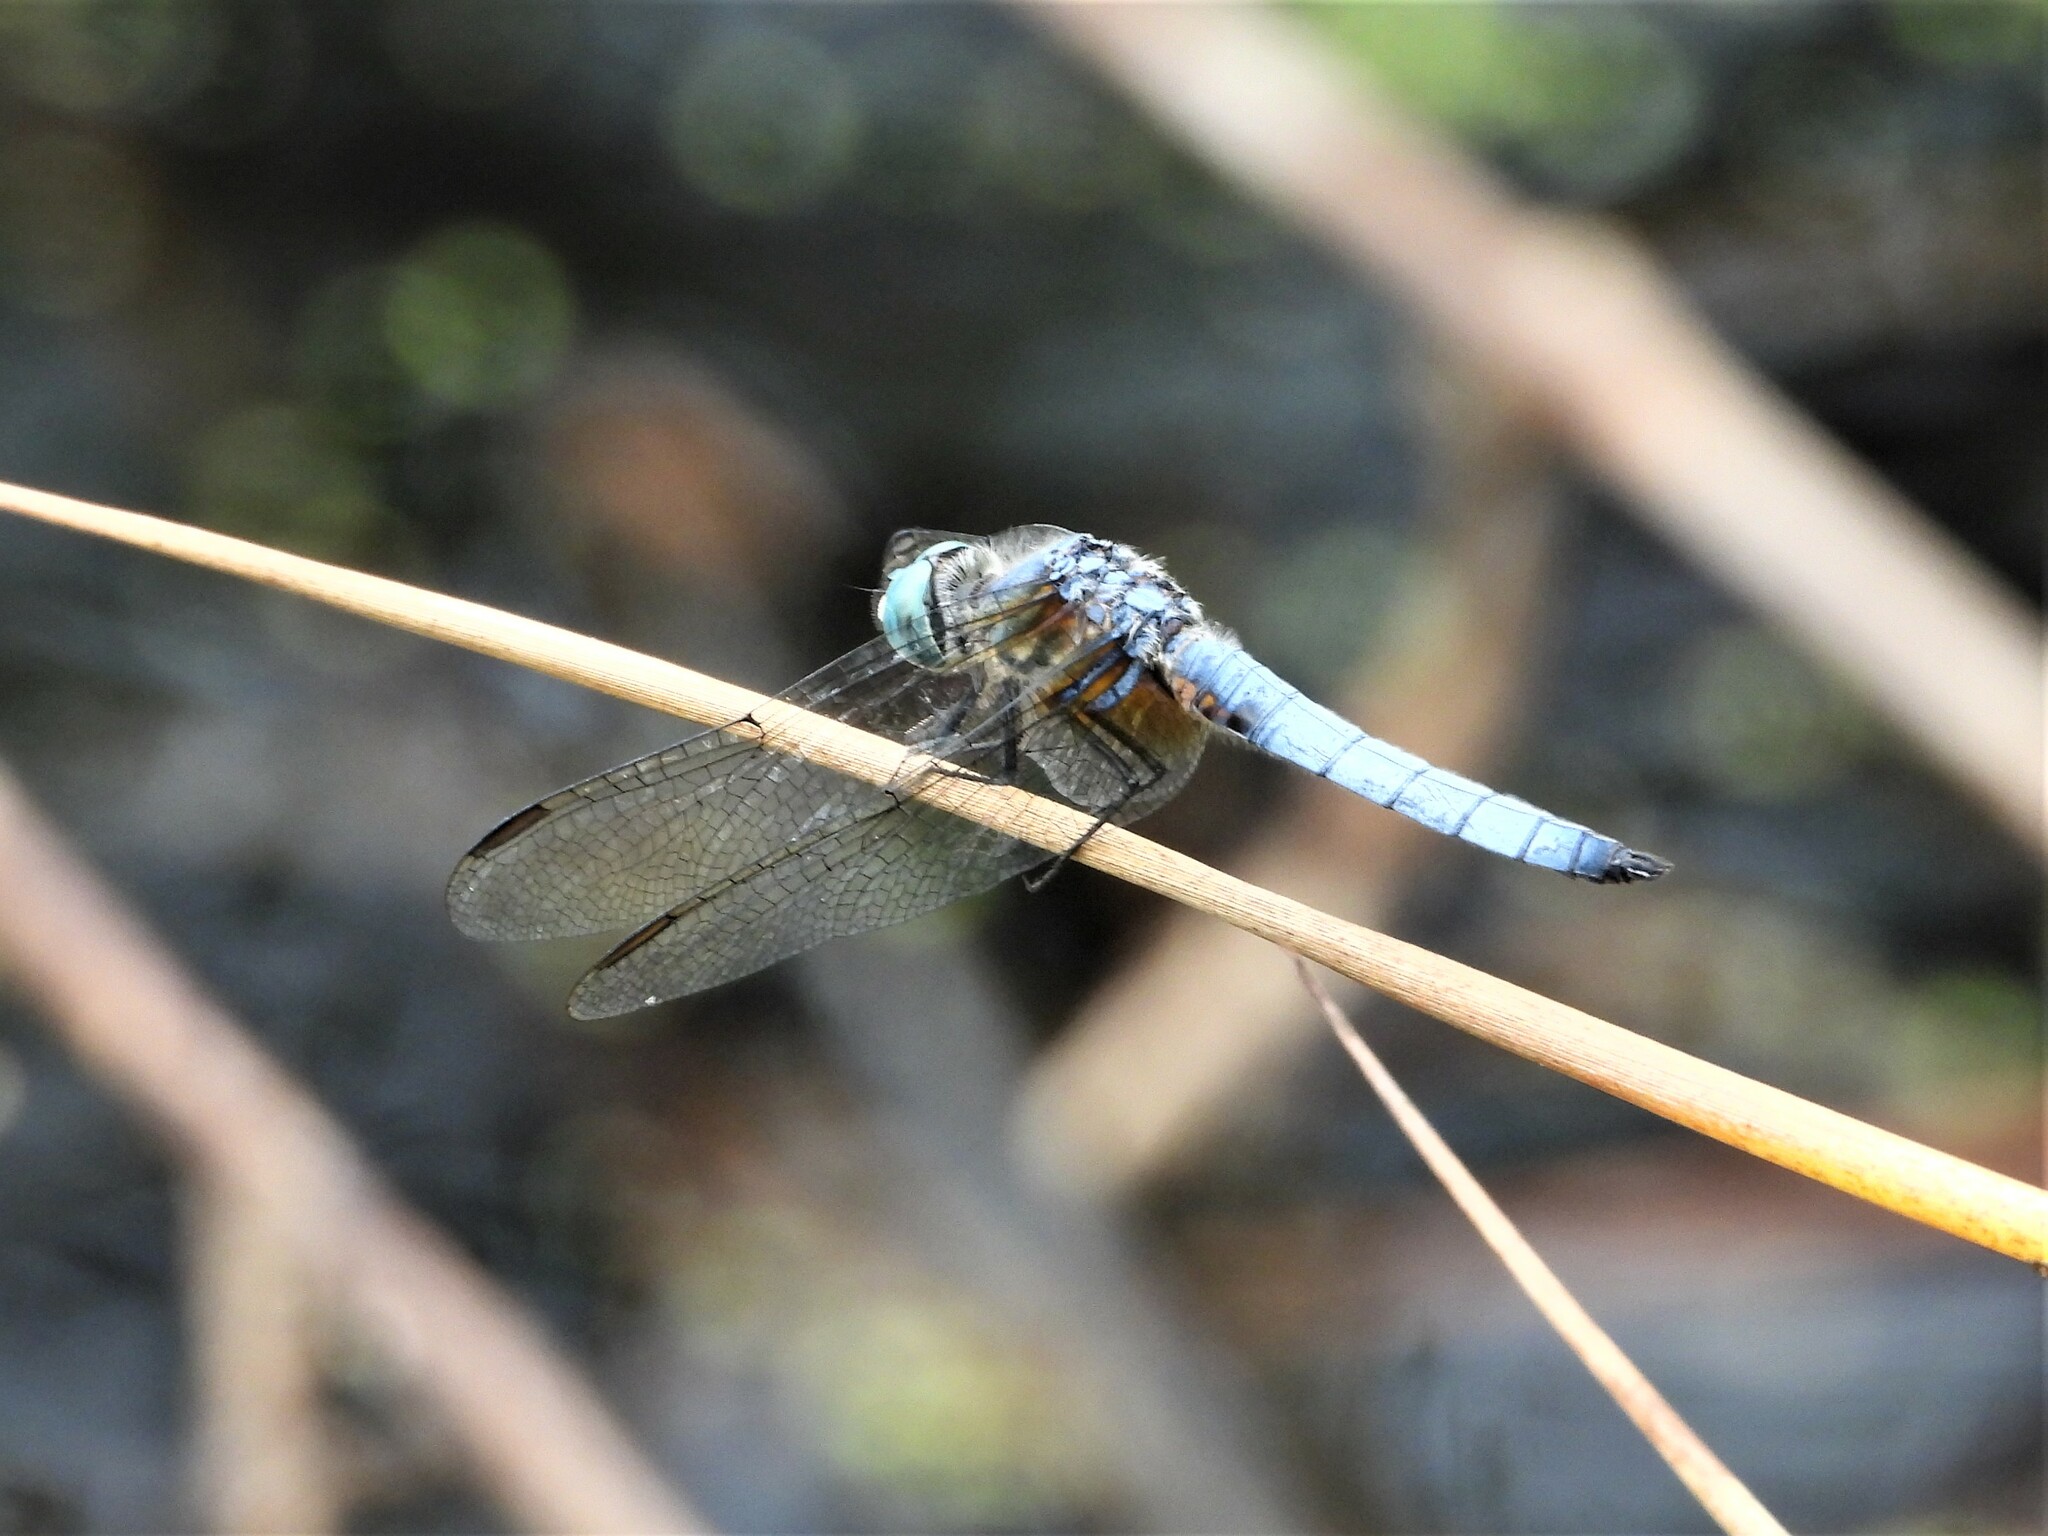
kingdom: Animalia
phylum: Arthropoda
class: Insecta
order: Odonata
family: Libellulidae
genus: Pachydiplax
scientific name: Pachydiplax longipennis
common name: Blue dasher
